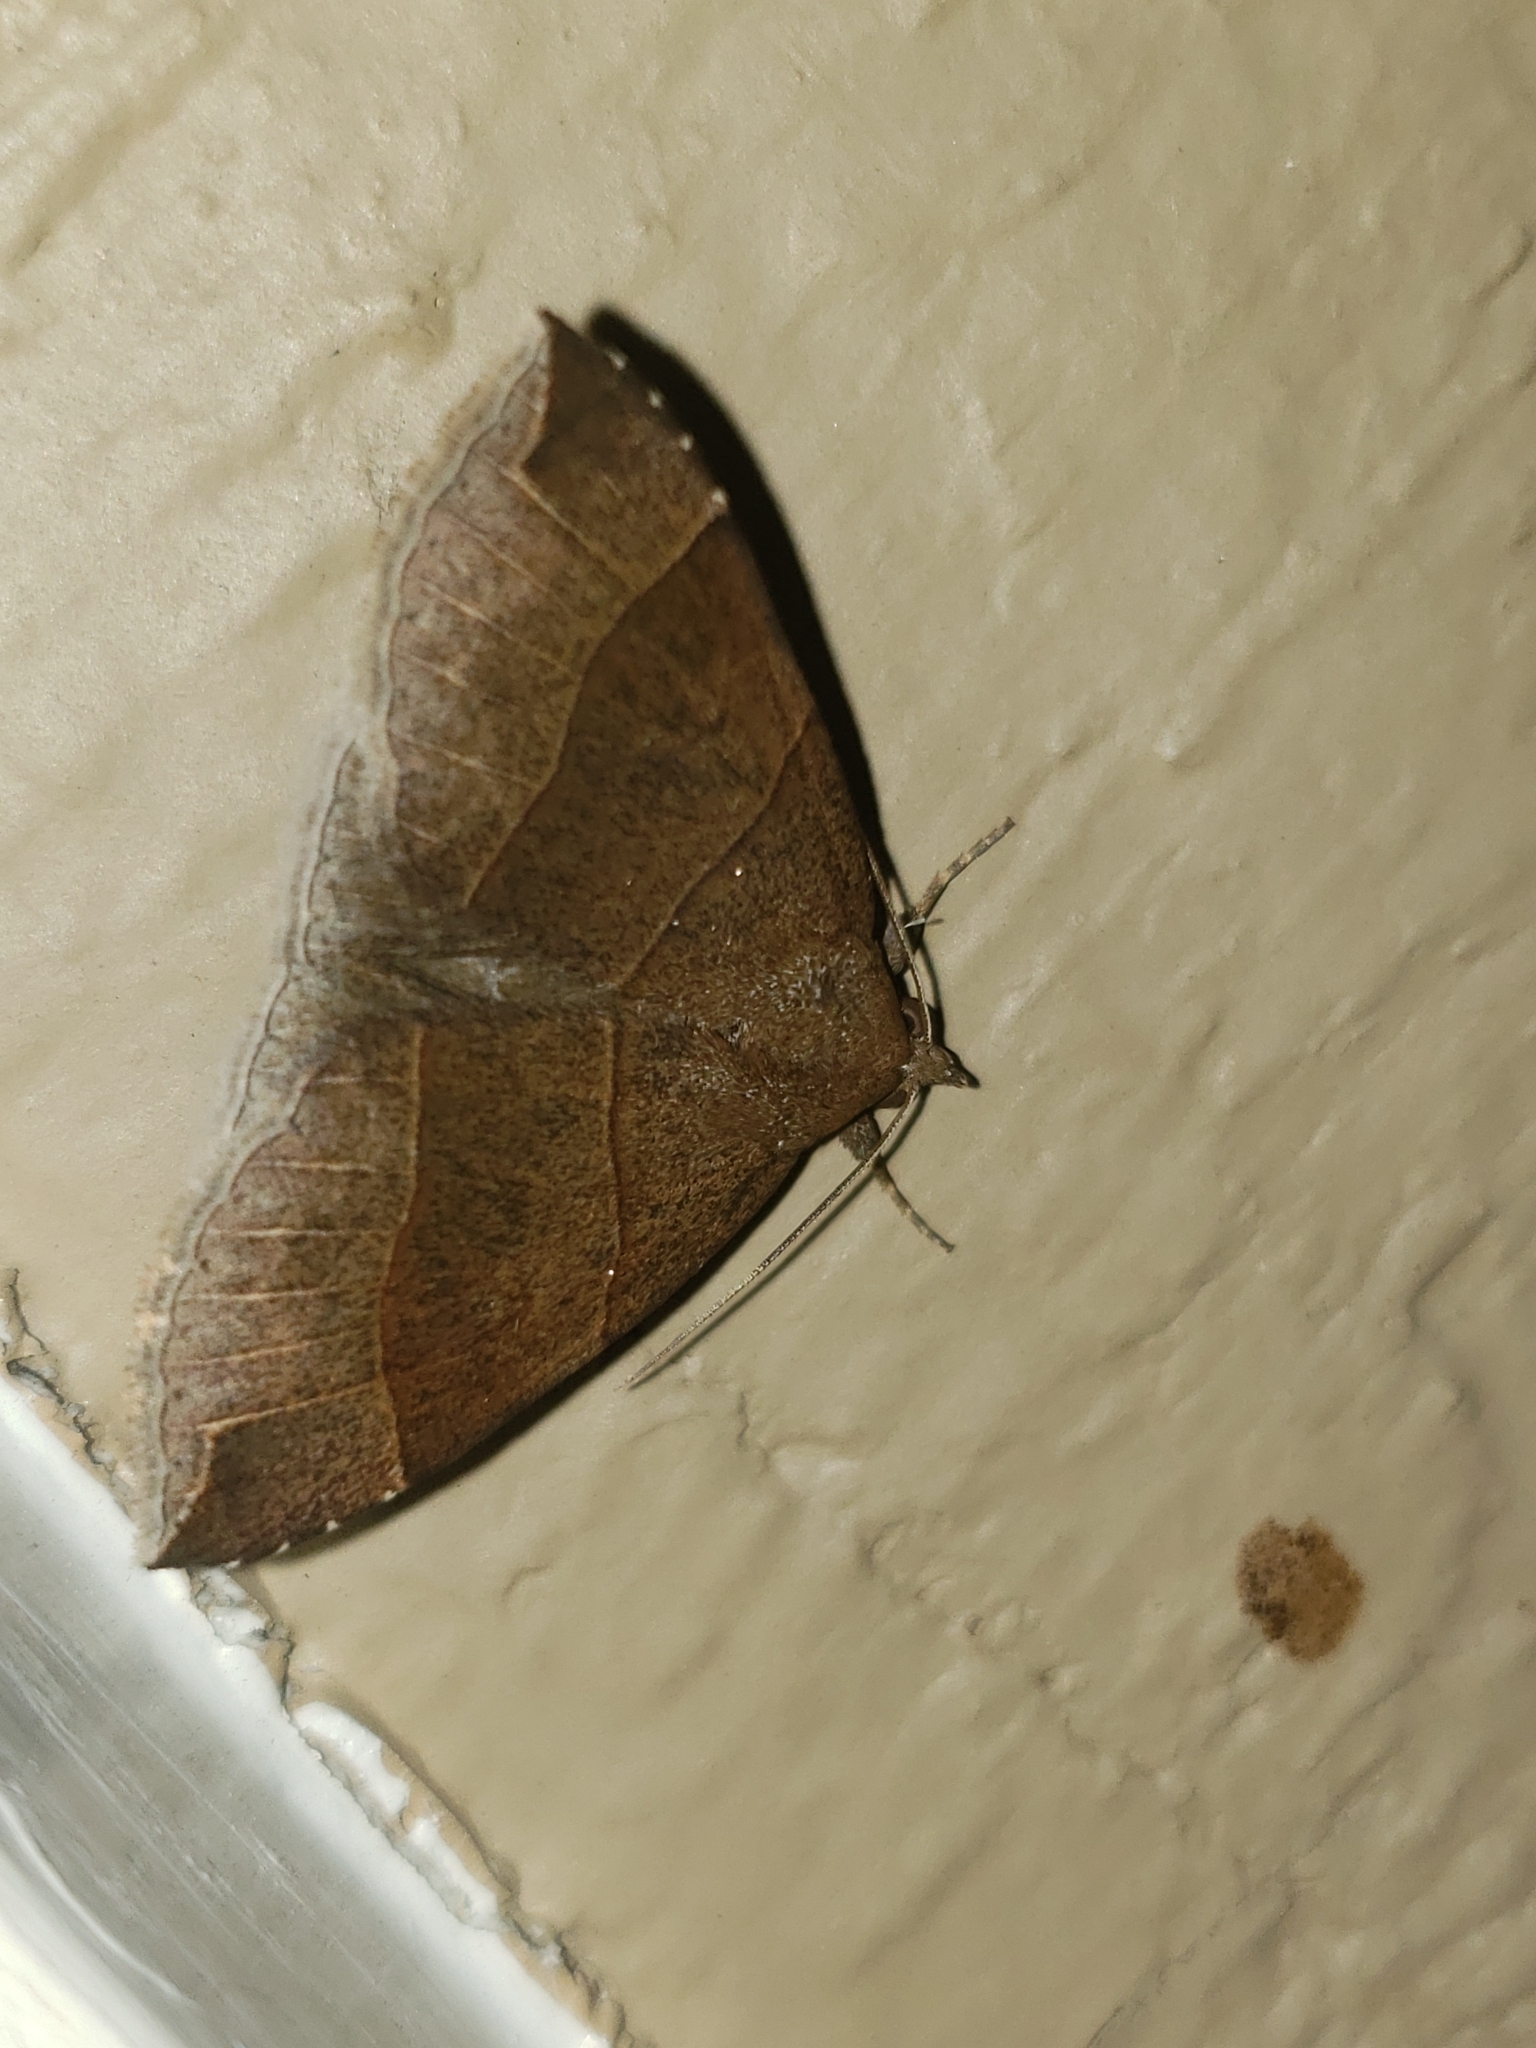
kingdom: Animalia
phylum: Arthropoda
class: Insecta
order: Lepidoptera
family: Erebidae
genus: Parallelia
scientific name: Parallelia bistriaris
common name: Maple looper moth
